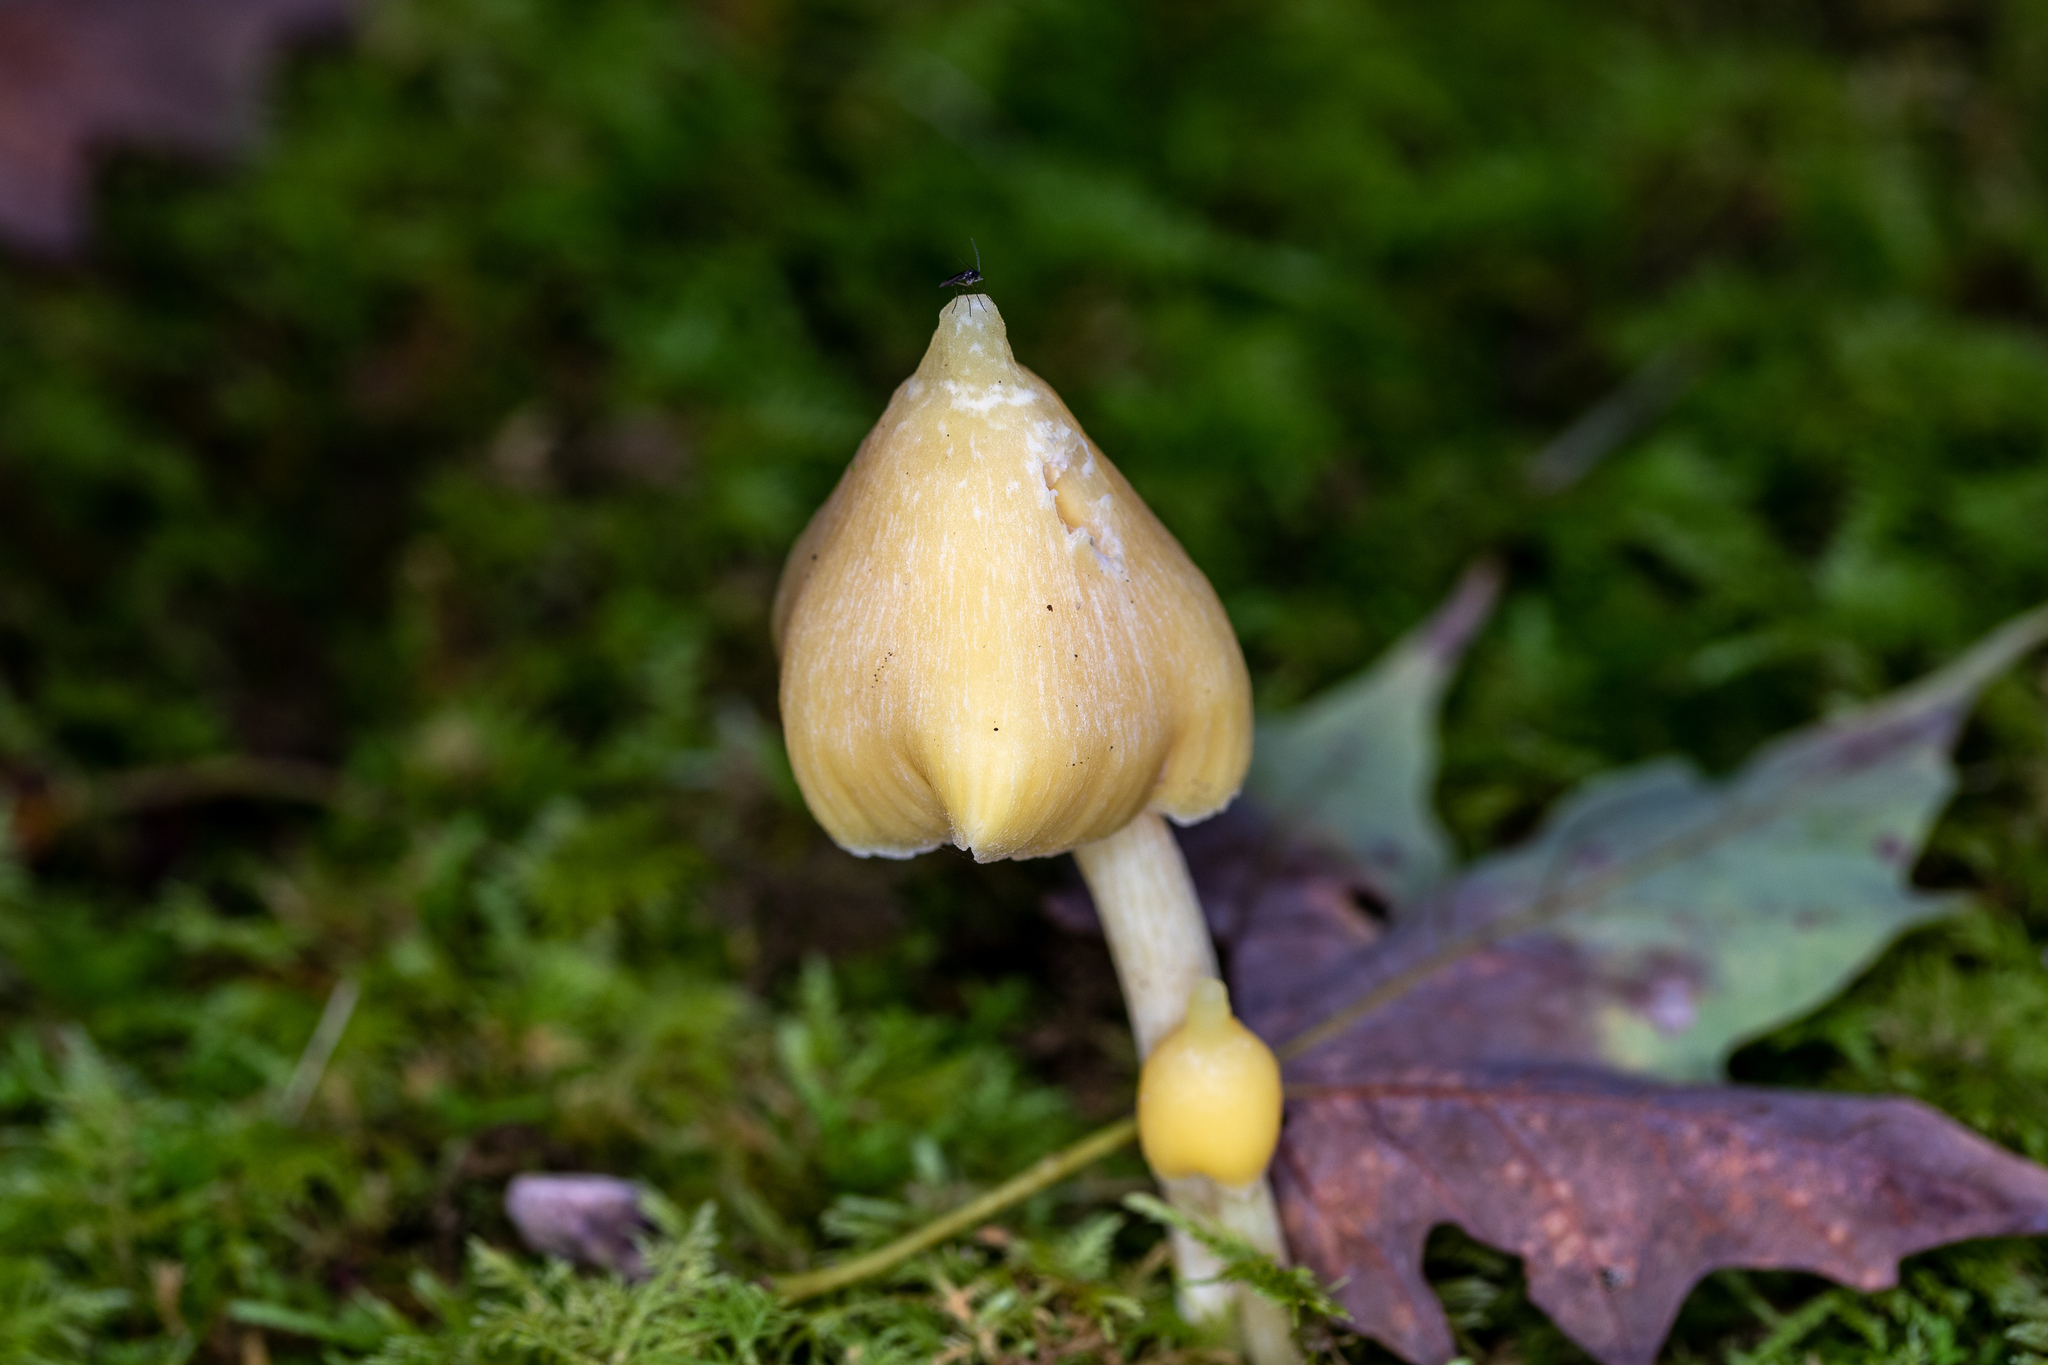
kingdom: Fungi
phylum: Basidiomycota
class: Agaricomycetes
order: Agaricales
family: Entolomataceae
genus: Entoloma
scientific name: Entoloma murrayi
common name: Yellow unicorn entoloma
